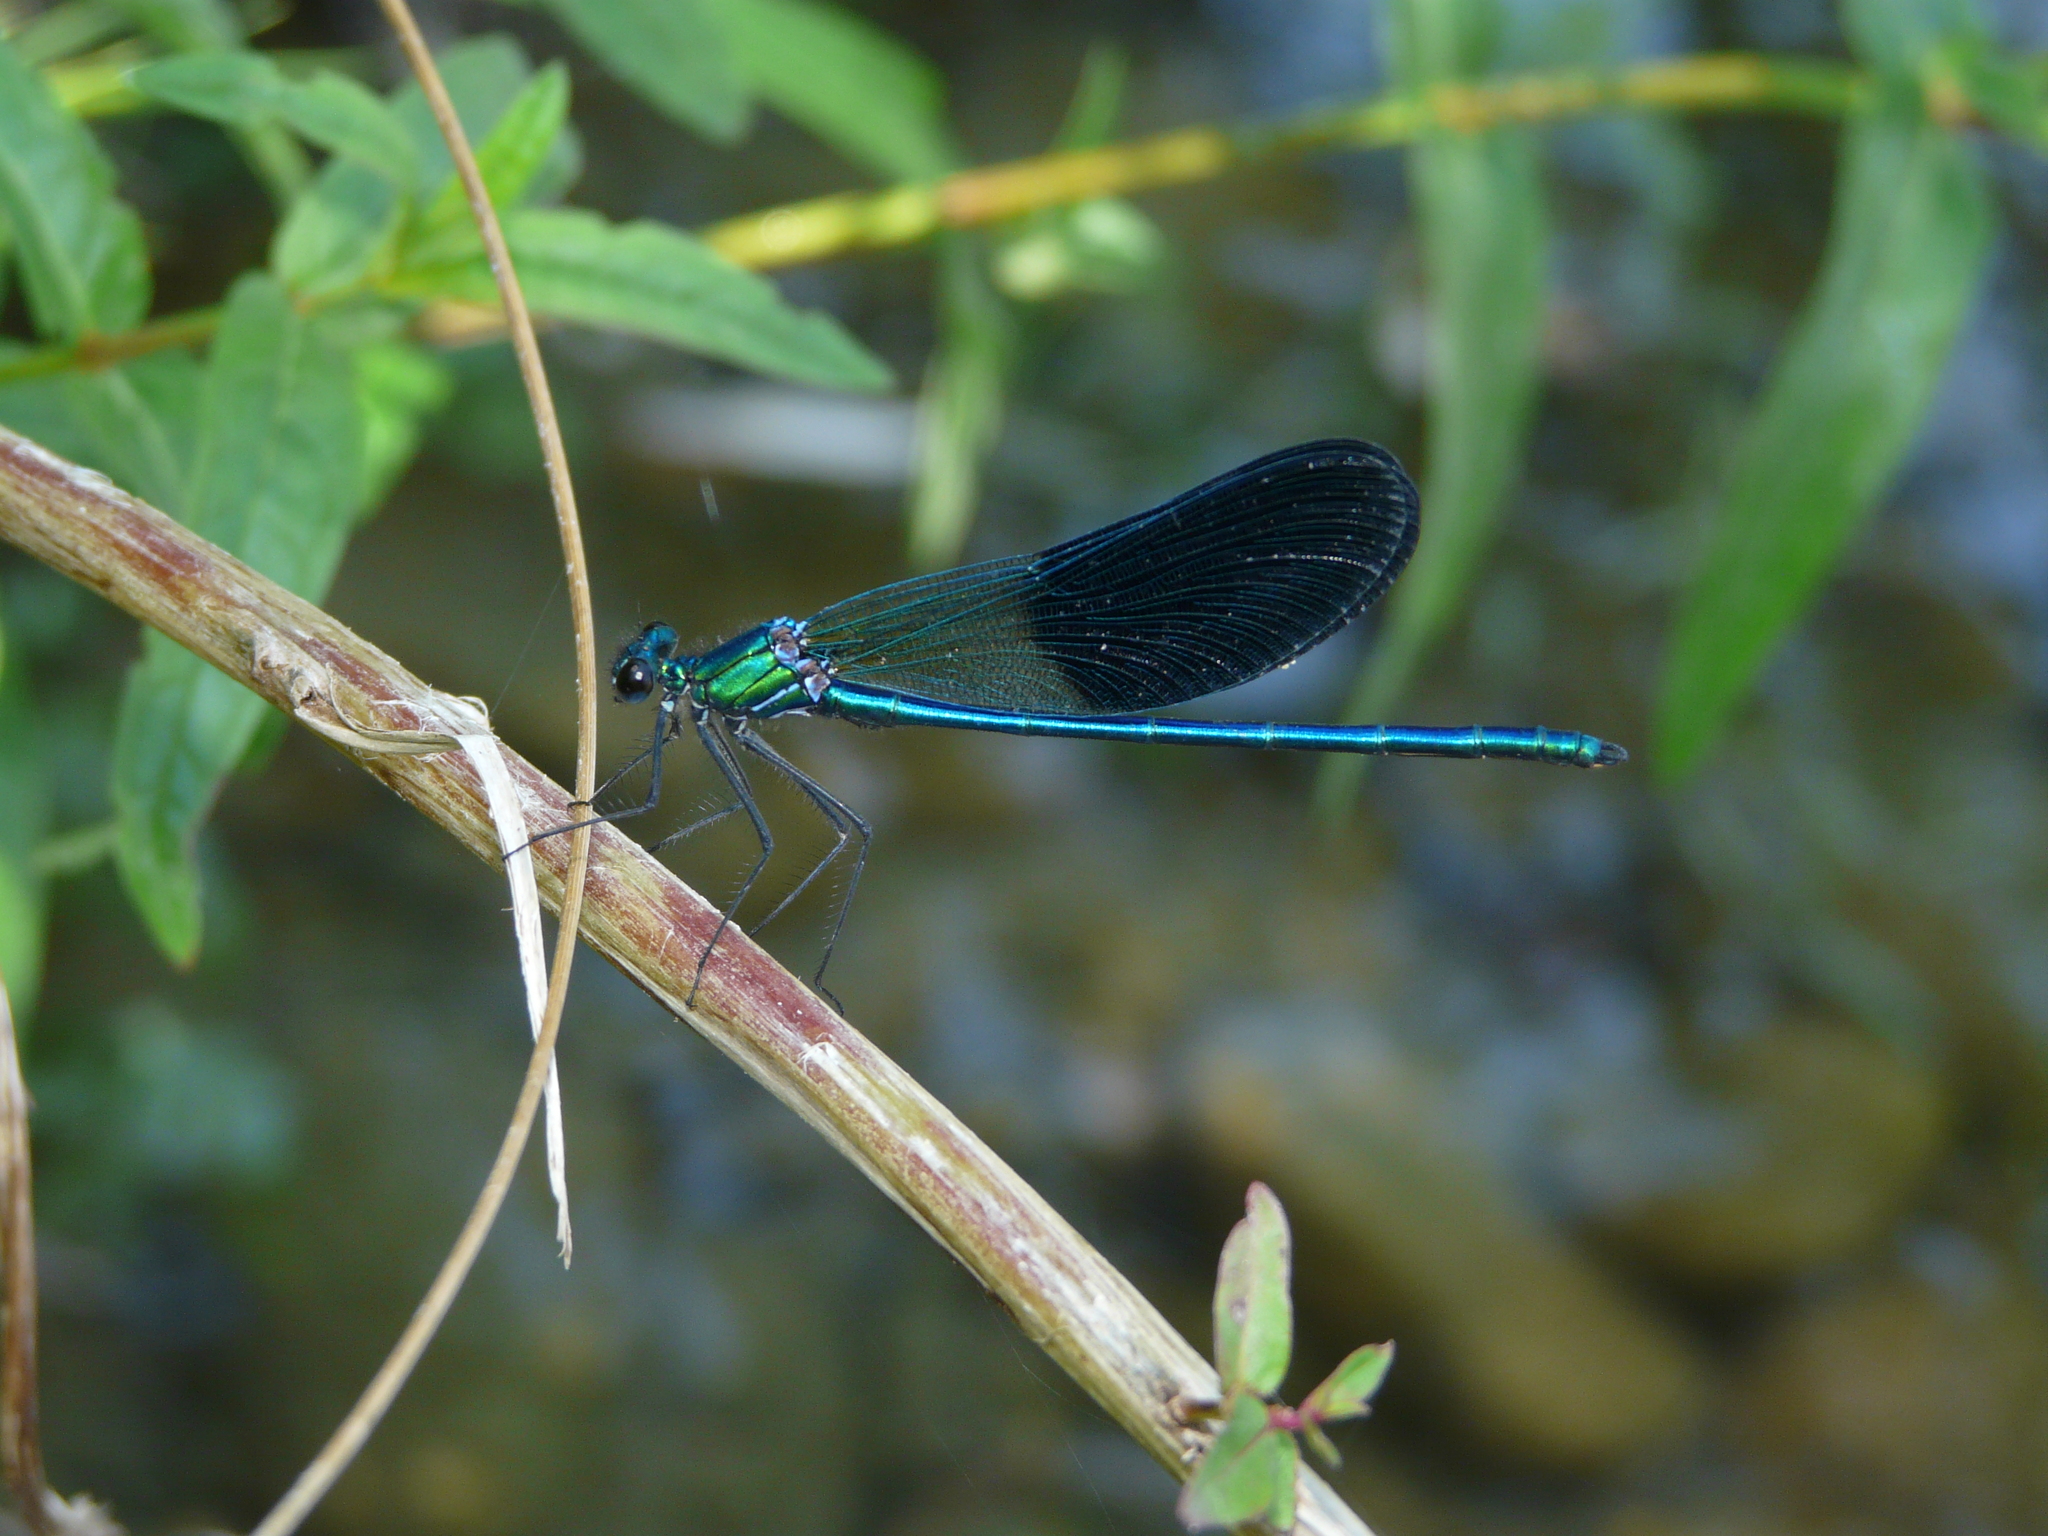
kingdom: Animalia
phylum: Arthropoda
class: Insecta
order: Odonata
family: Calopterygidae
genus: Calopteryx
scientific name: Calopteryx xanthostoma
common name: Western demoiselle
